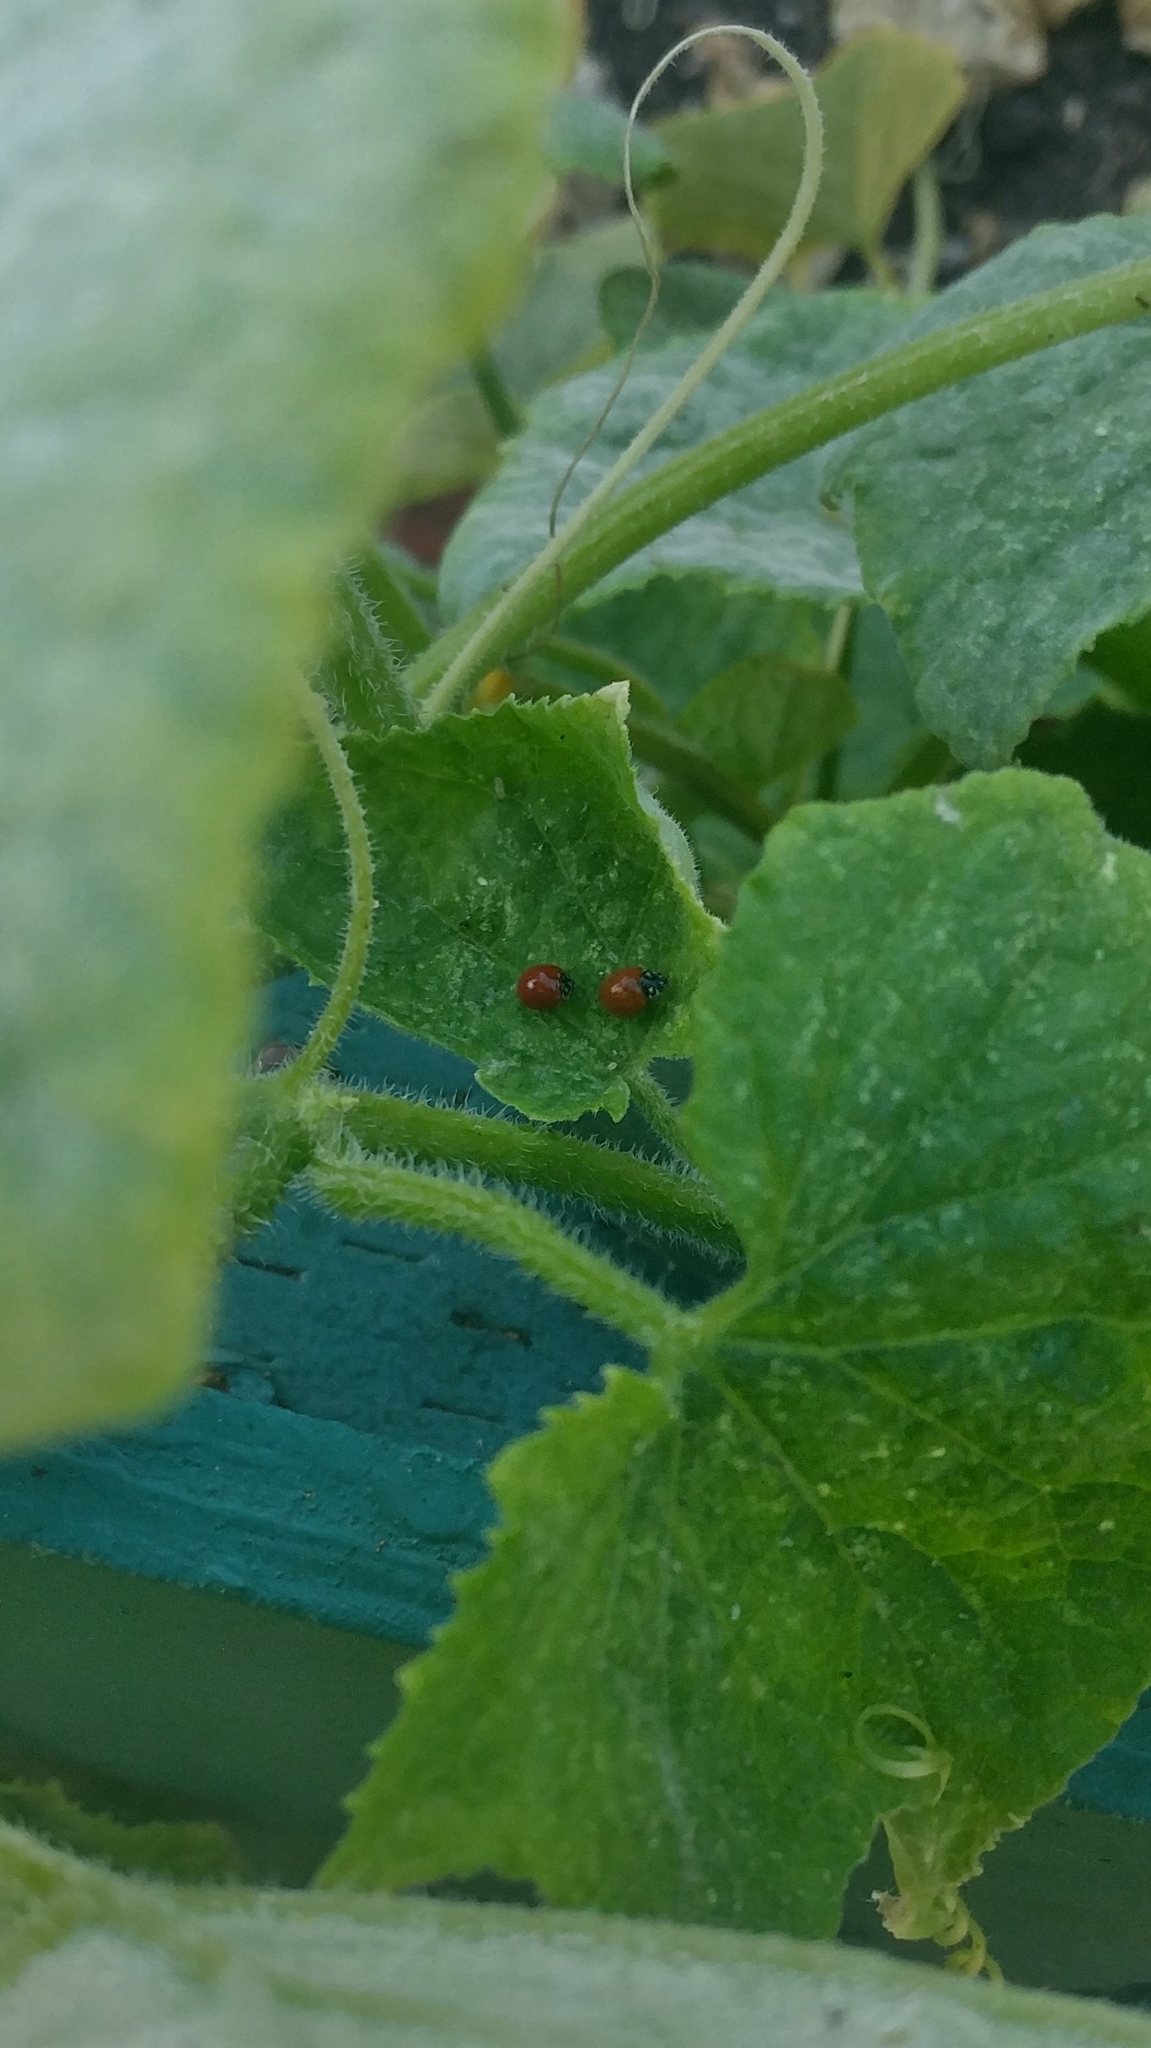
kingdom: Animalia
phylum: Arthropoda
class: Insecta
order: Coleoptera
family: Coccinellidae
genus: Cycloneda
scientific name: Cycloneda sanguinea
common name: Ladybird beetle
